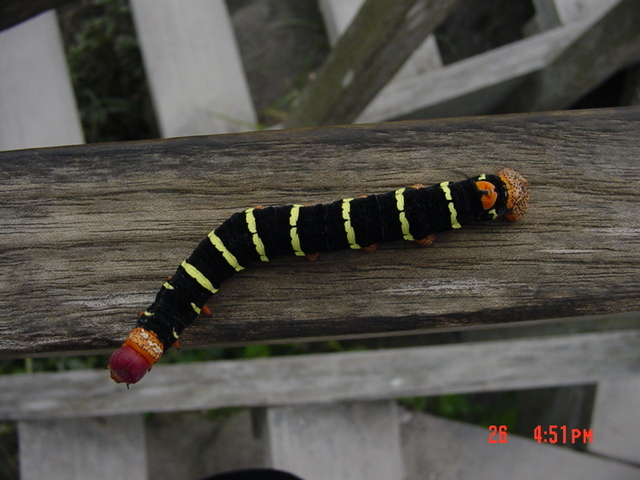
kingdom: Animalia
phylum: Arthropoda
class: Insecta
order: Lepidoptera
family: Sphingidae
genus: Pseudosphinx
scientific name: Pseudosphinx tetrio
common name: Tetrio sphinx
